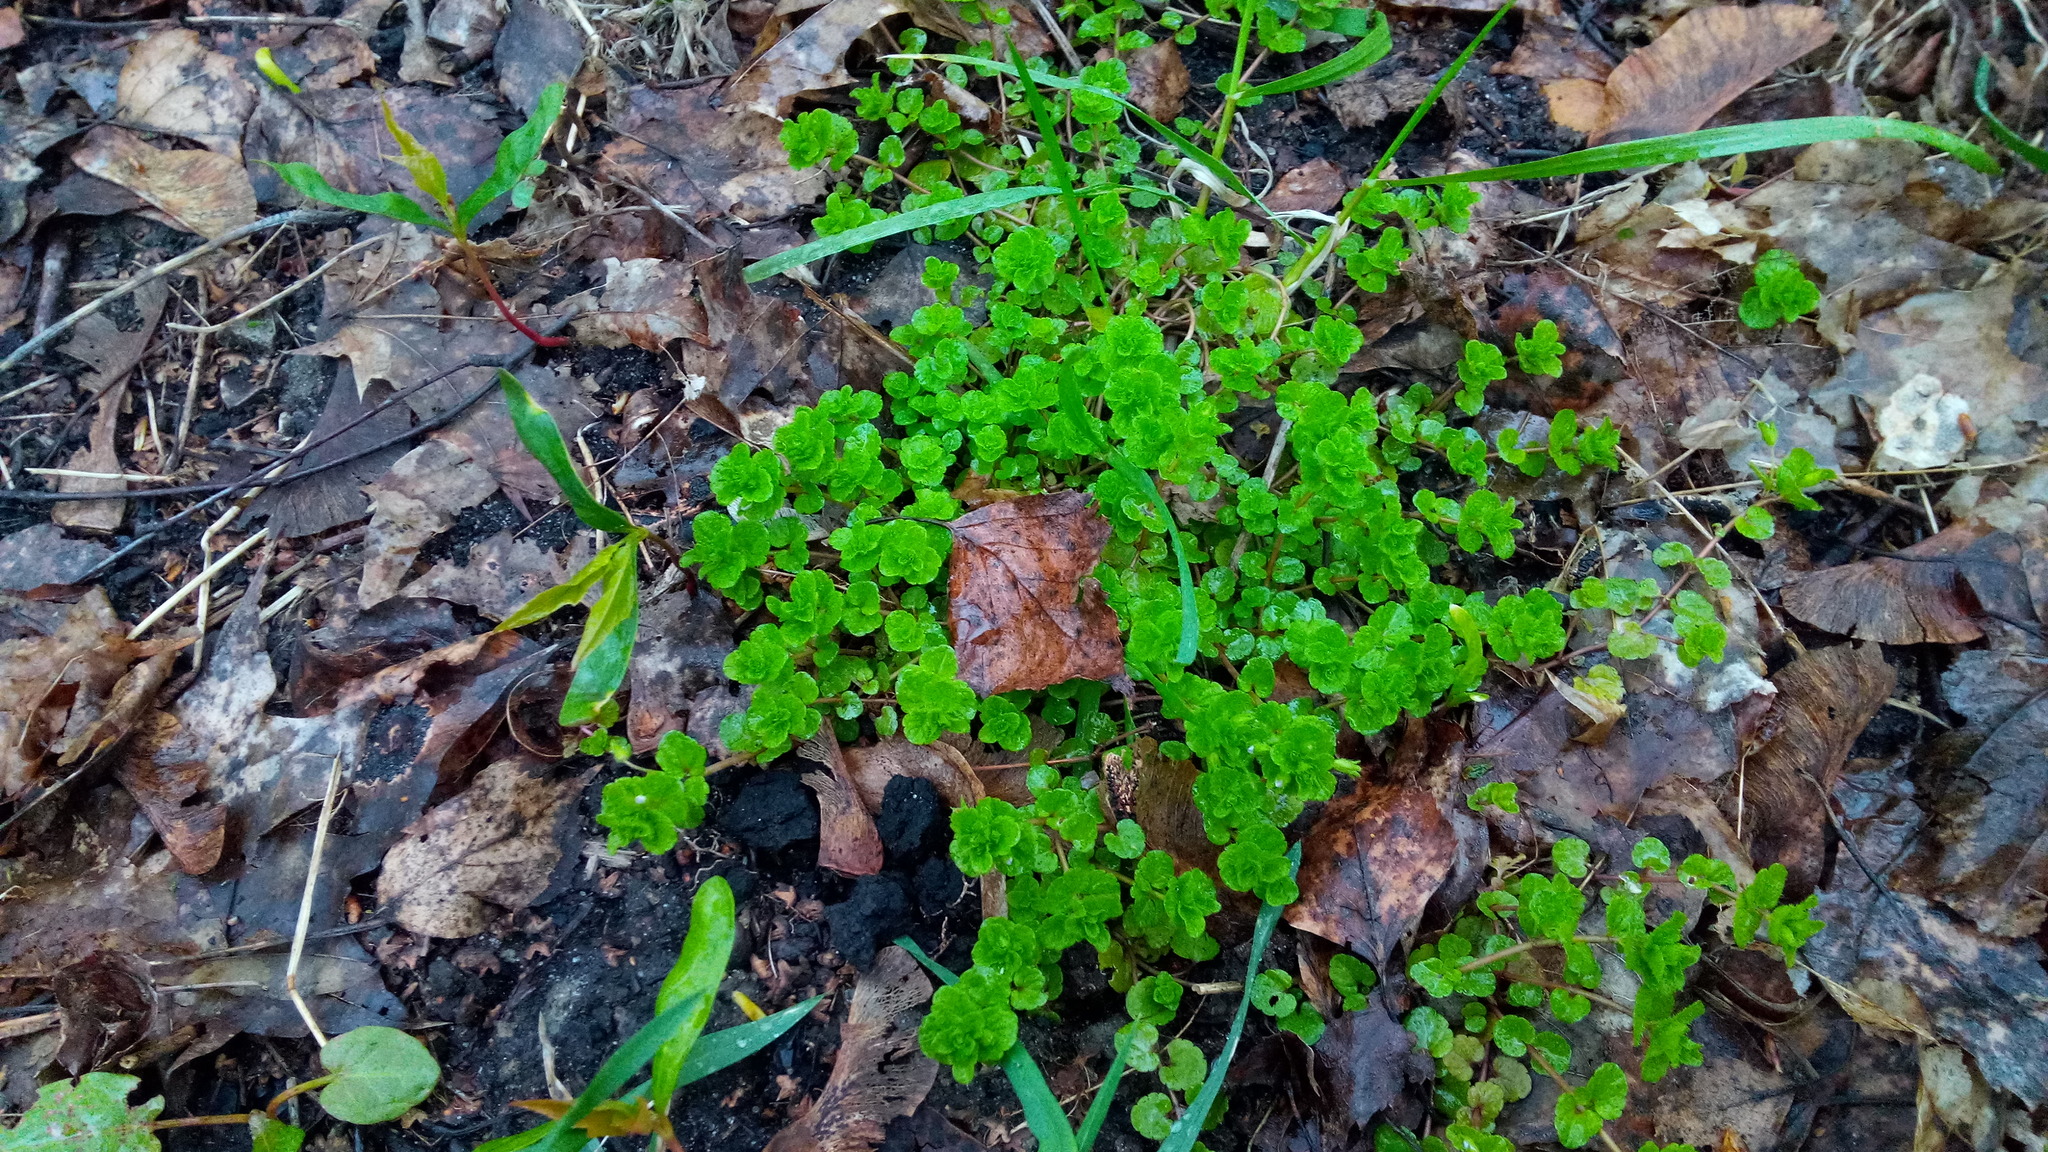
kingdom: Plantae
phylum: Tracheophyta
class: Magnoliopsida
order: Lamiales
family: Plantaginaceae
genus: Veronica
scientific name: Veronica filiformis
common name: Slender speedwell
